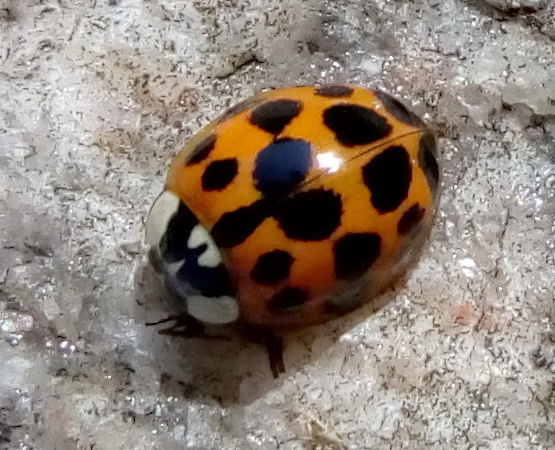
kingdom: Animalia
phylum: Arthropoda
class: Insecta
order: Coleoptera
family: Coccinellidae
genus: Harmonia
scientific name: Harmonia axyridis
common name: Harlequin ladybird
